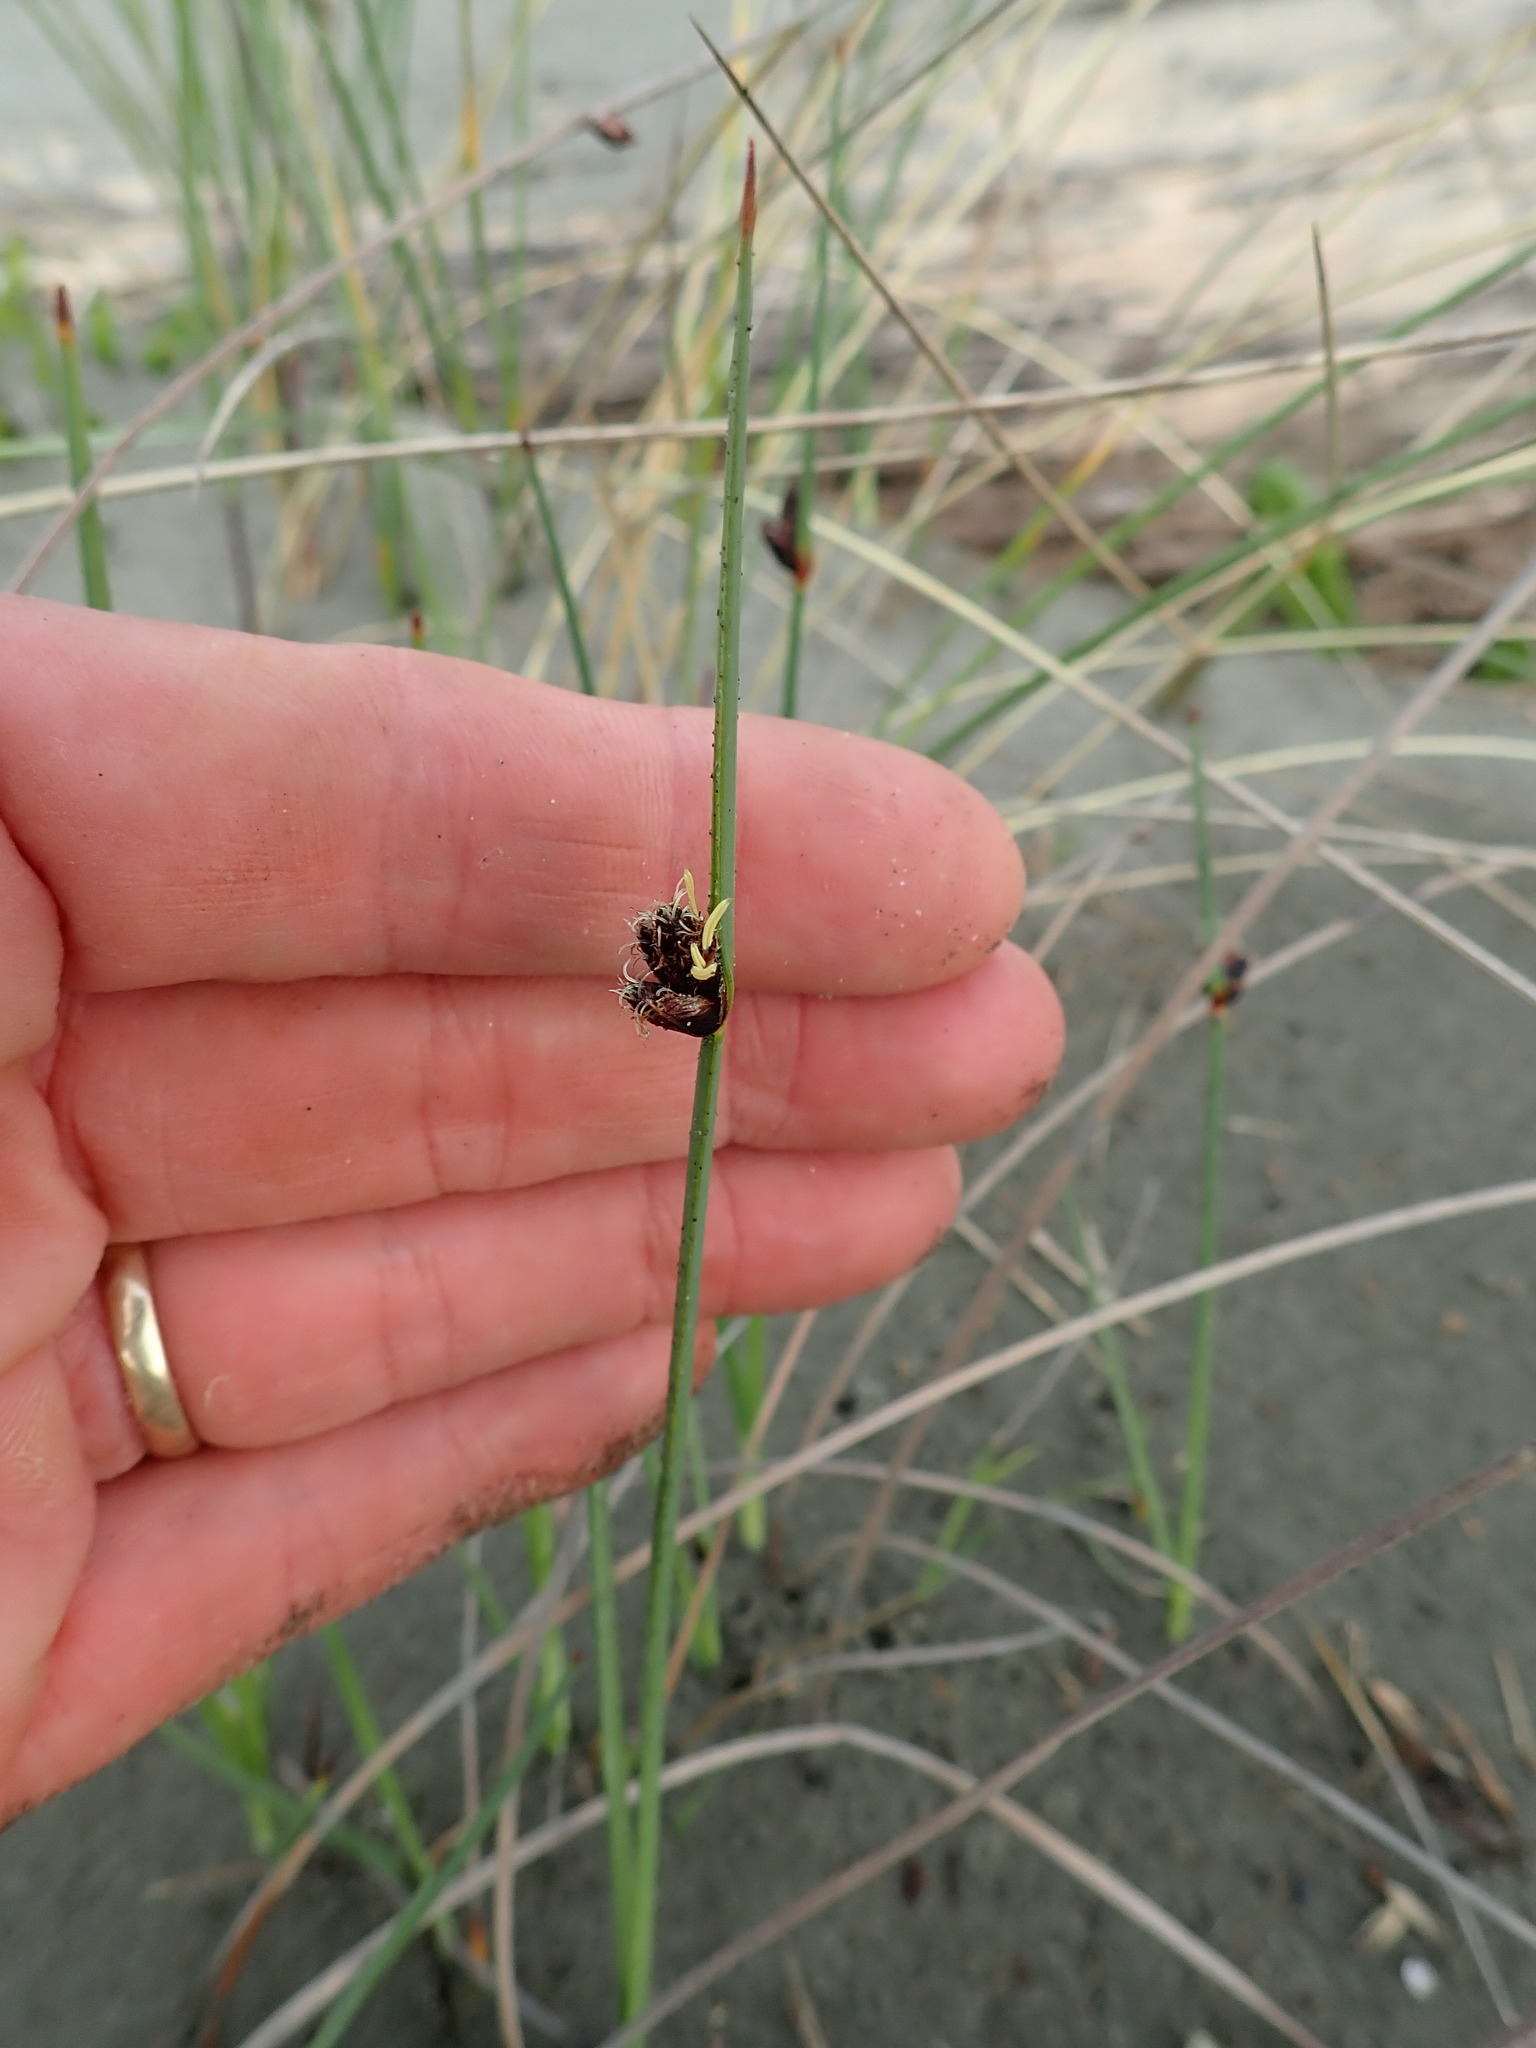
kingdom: Plantae
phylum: Tracheophyta
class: Liliopsida
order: Poales
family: Cyperaceae
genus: Schoenoplectus
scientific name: Schoenoplectus pungens
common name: Sharp club-rush
